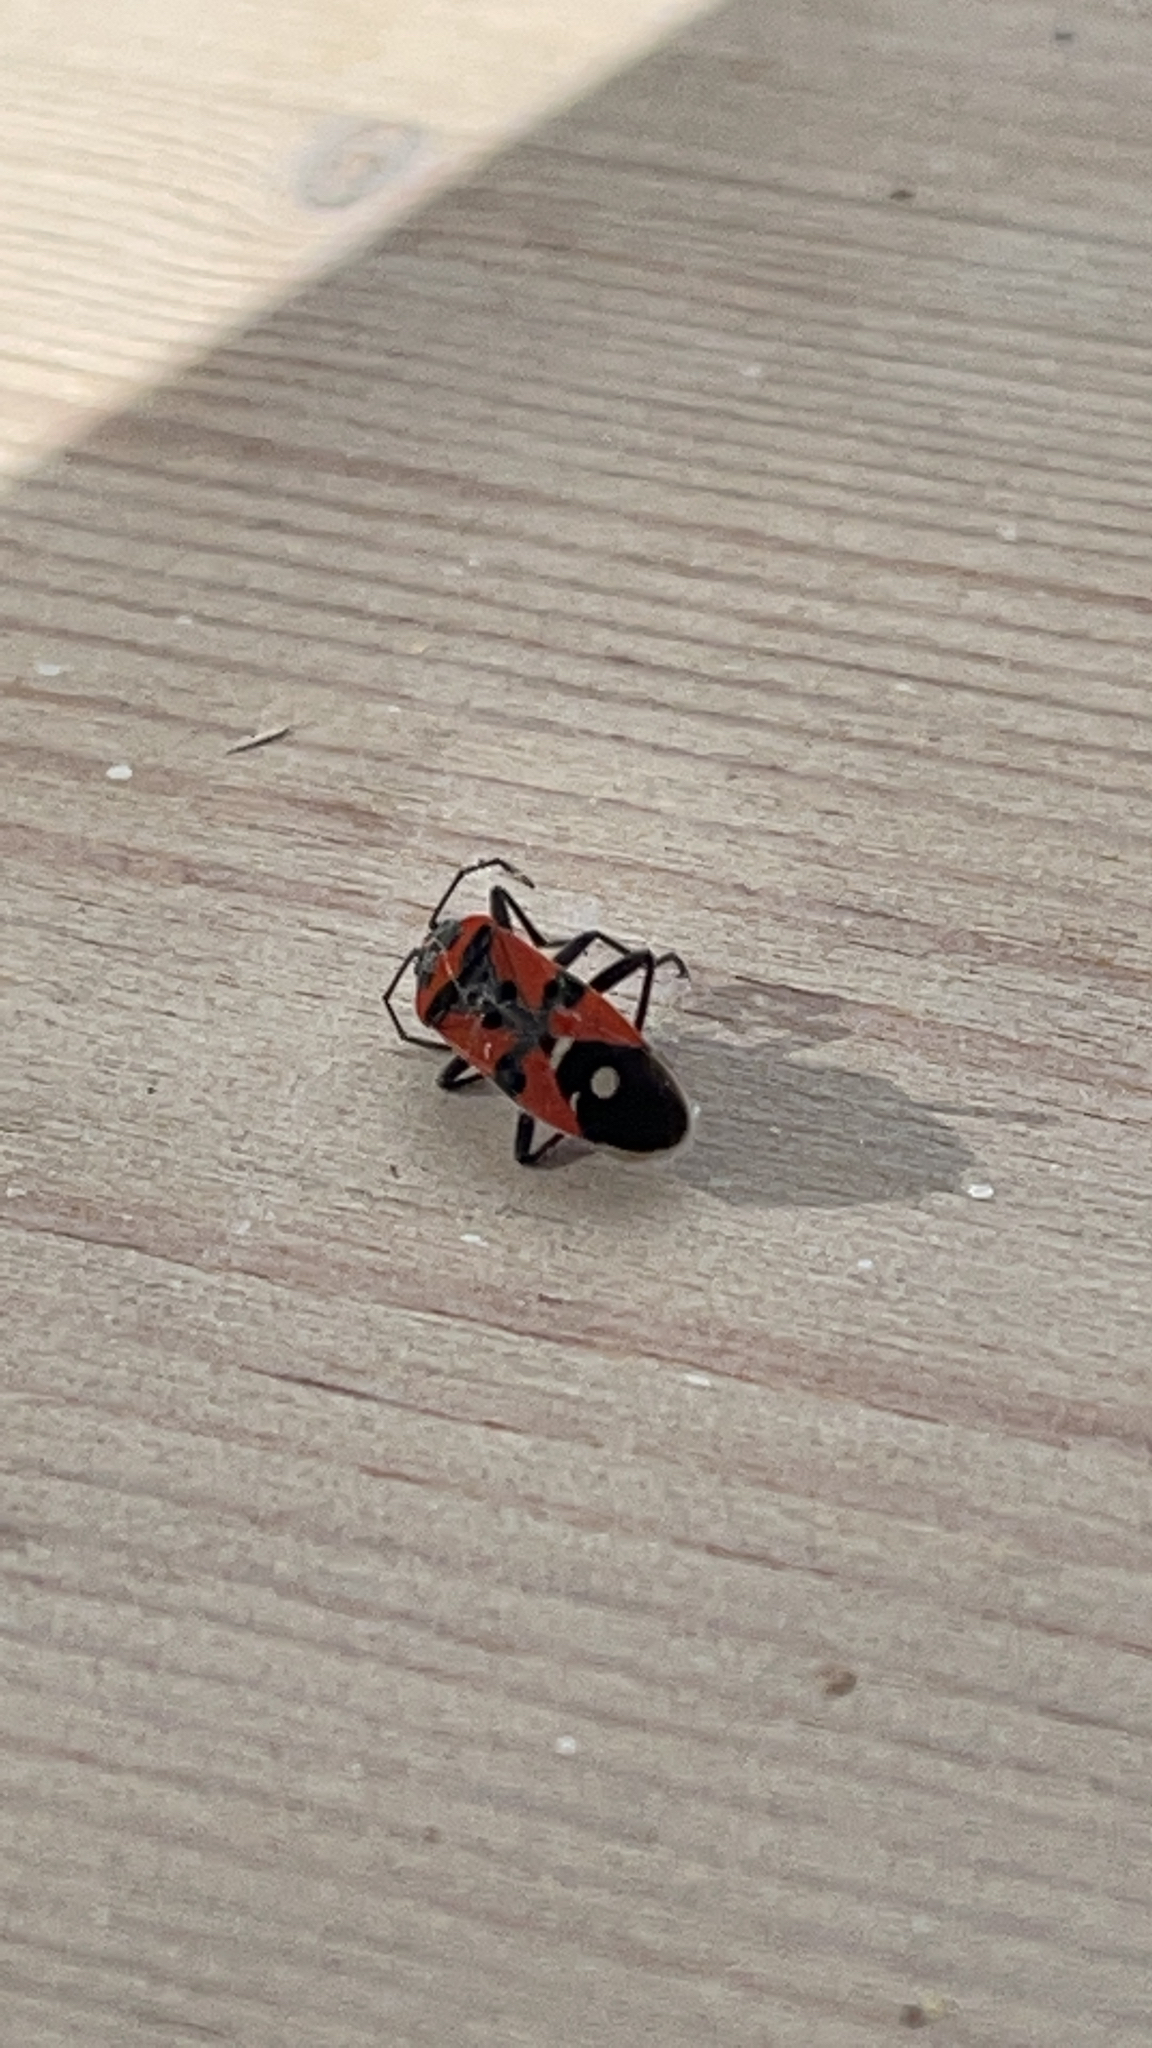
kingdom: Animalia
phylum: Arthropoda
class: Insecta
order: Hemiptera
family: Lygaeidae
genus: Lygaeus
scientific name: Lygaeus equestris
